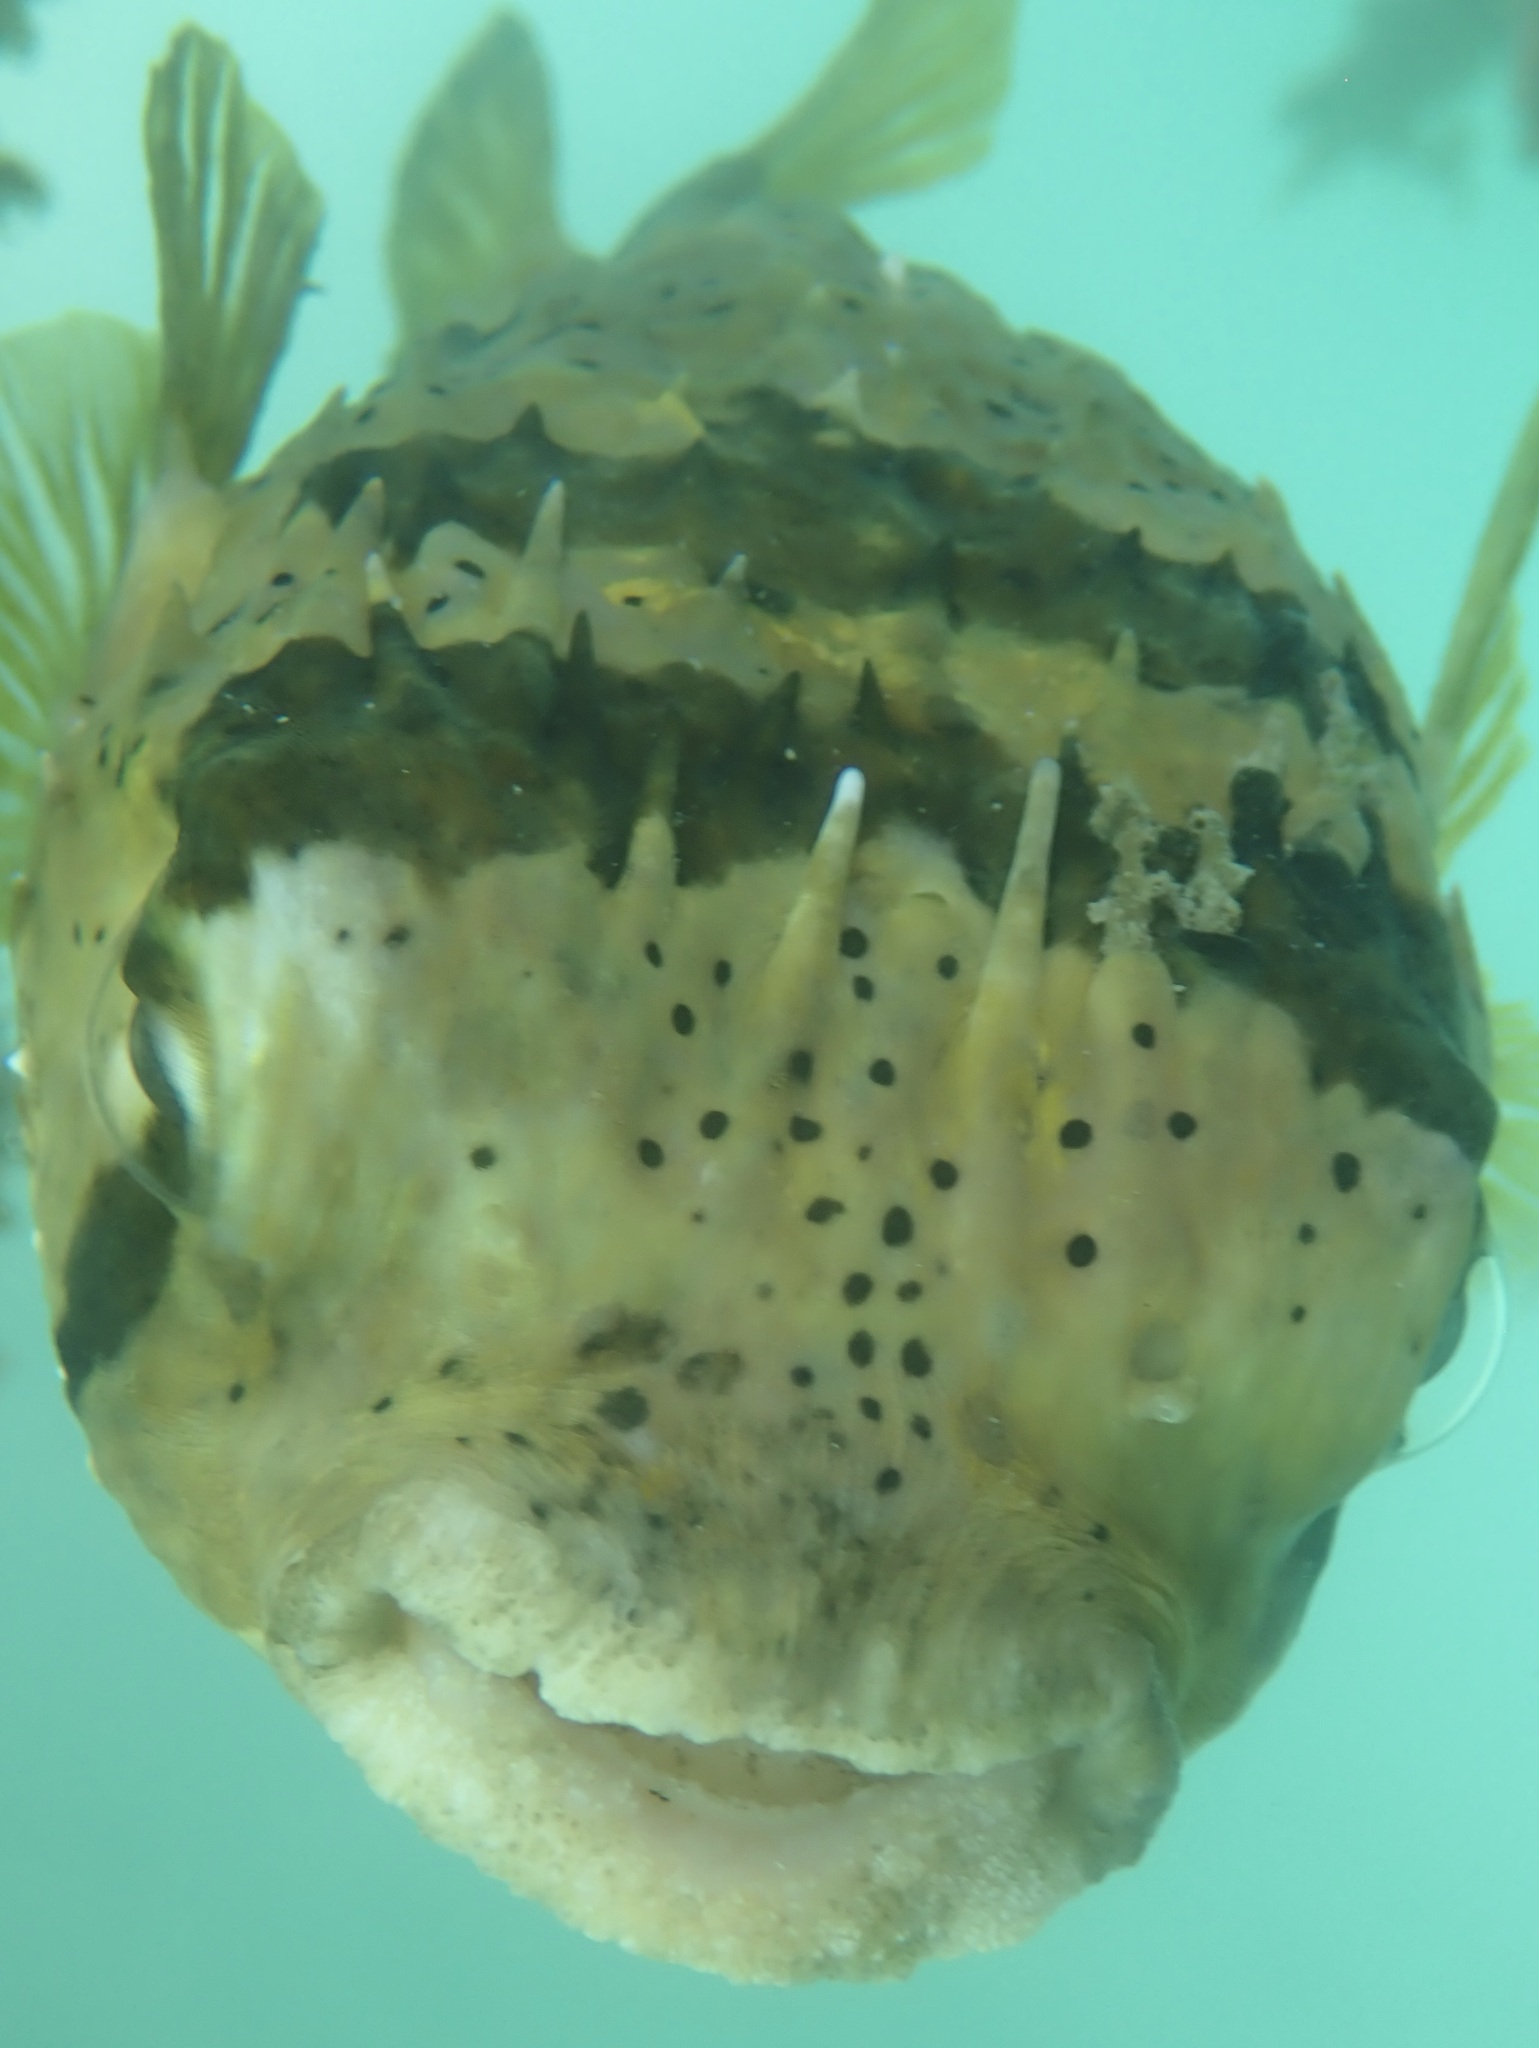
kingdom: Animalia
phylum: Chordata
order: Tetraodontiformes
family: Diodontidae
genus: Diodon
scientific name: Diodon holocanthus
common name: Balloonfish
